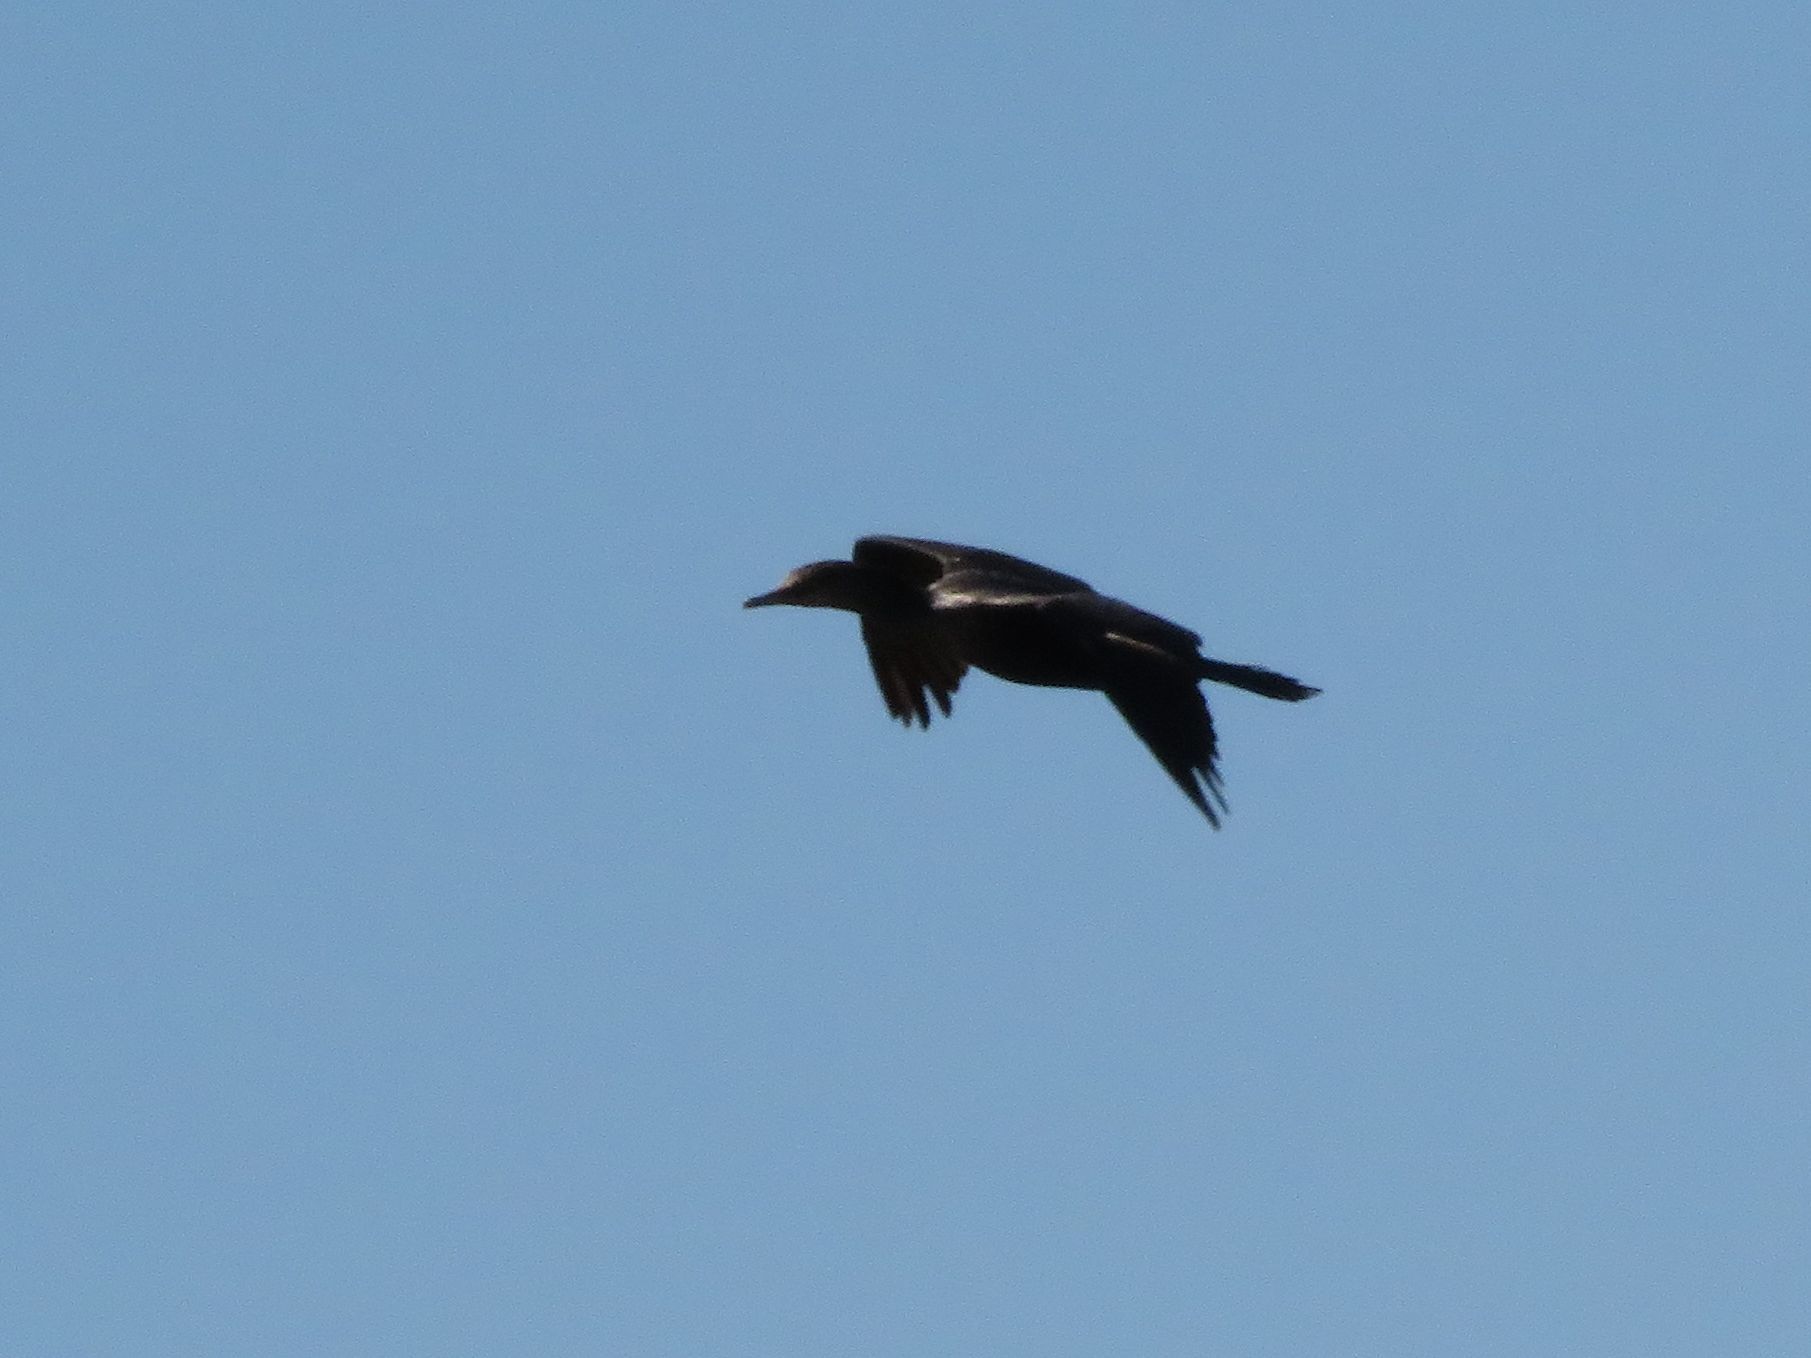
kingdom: Animalia
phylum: Chordata
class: Aves
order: Suliformes
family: Phalacrocoracidae
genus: Phalacrocorax
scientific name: Phalacrocorax brasilianus
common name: Neotropic cormorant
